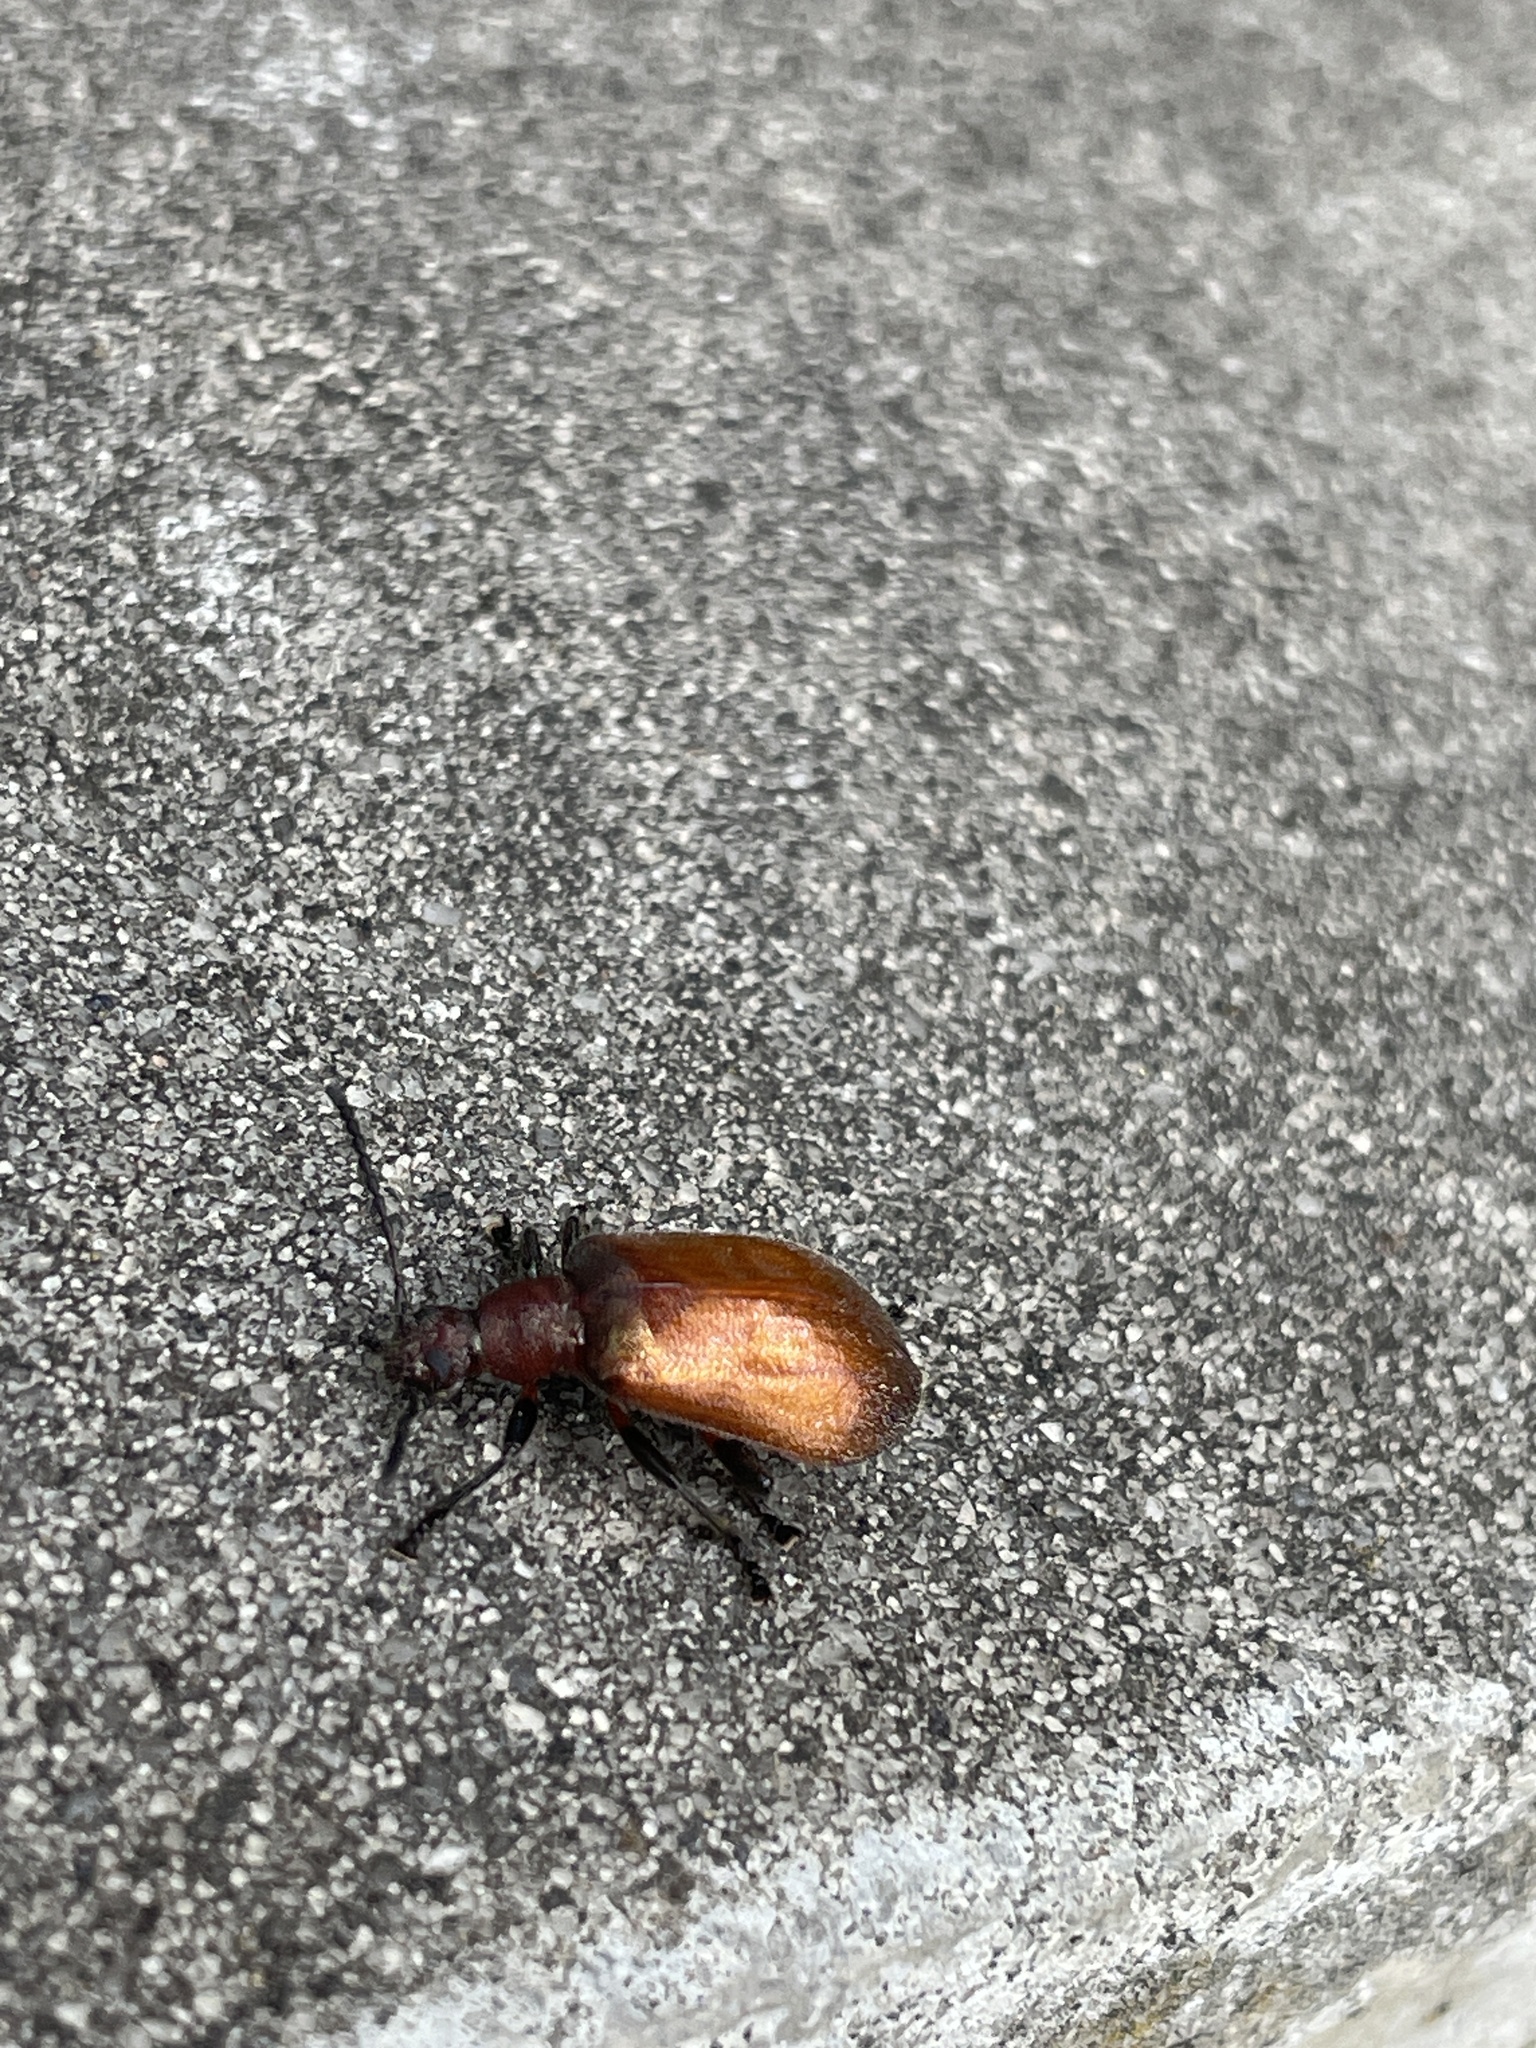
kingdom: Animalia
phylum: Arthropoda
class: Insecta
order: Coleoptera
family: Tenebrionidae
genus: Ecnolagria
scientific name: Ecnolagria
